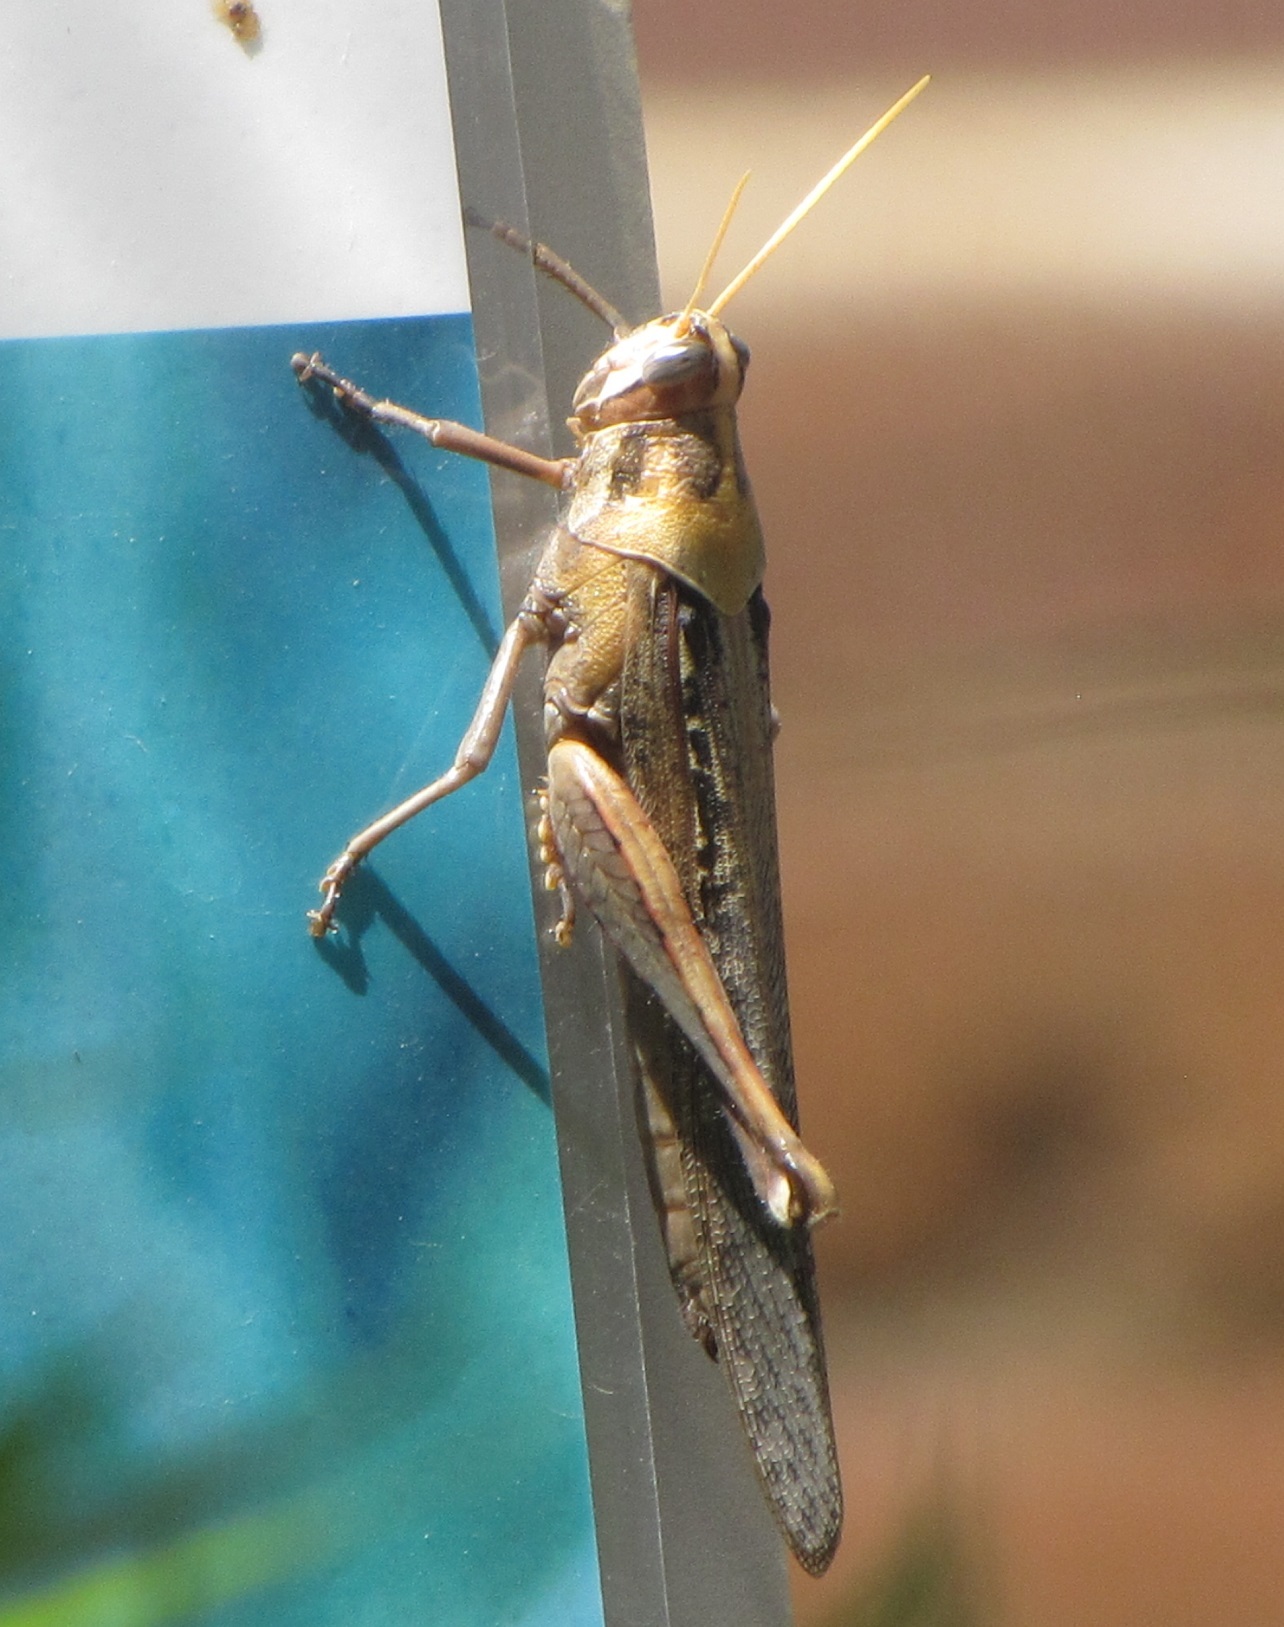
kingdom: Animalia
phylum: Arthropoda
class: Insecta
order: Orthoptera
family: Acrididae
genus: Schistocerca
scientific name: Schistocerca nitens
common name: Vagrant grasshopper
